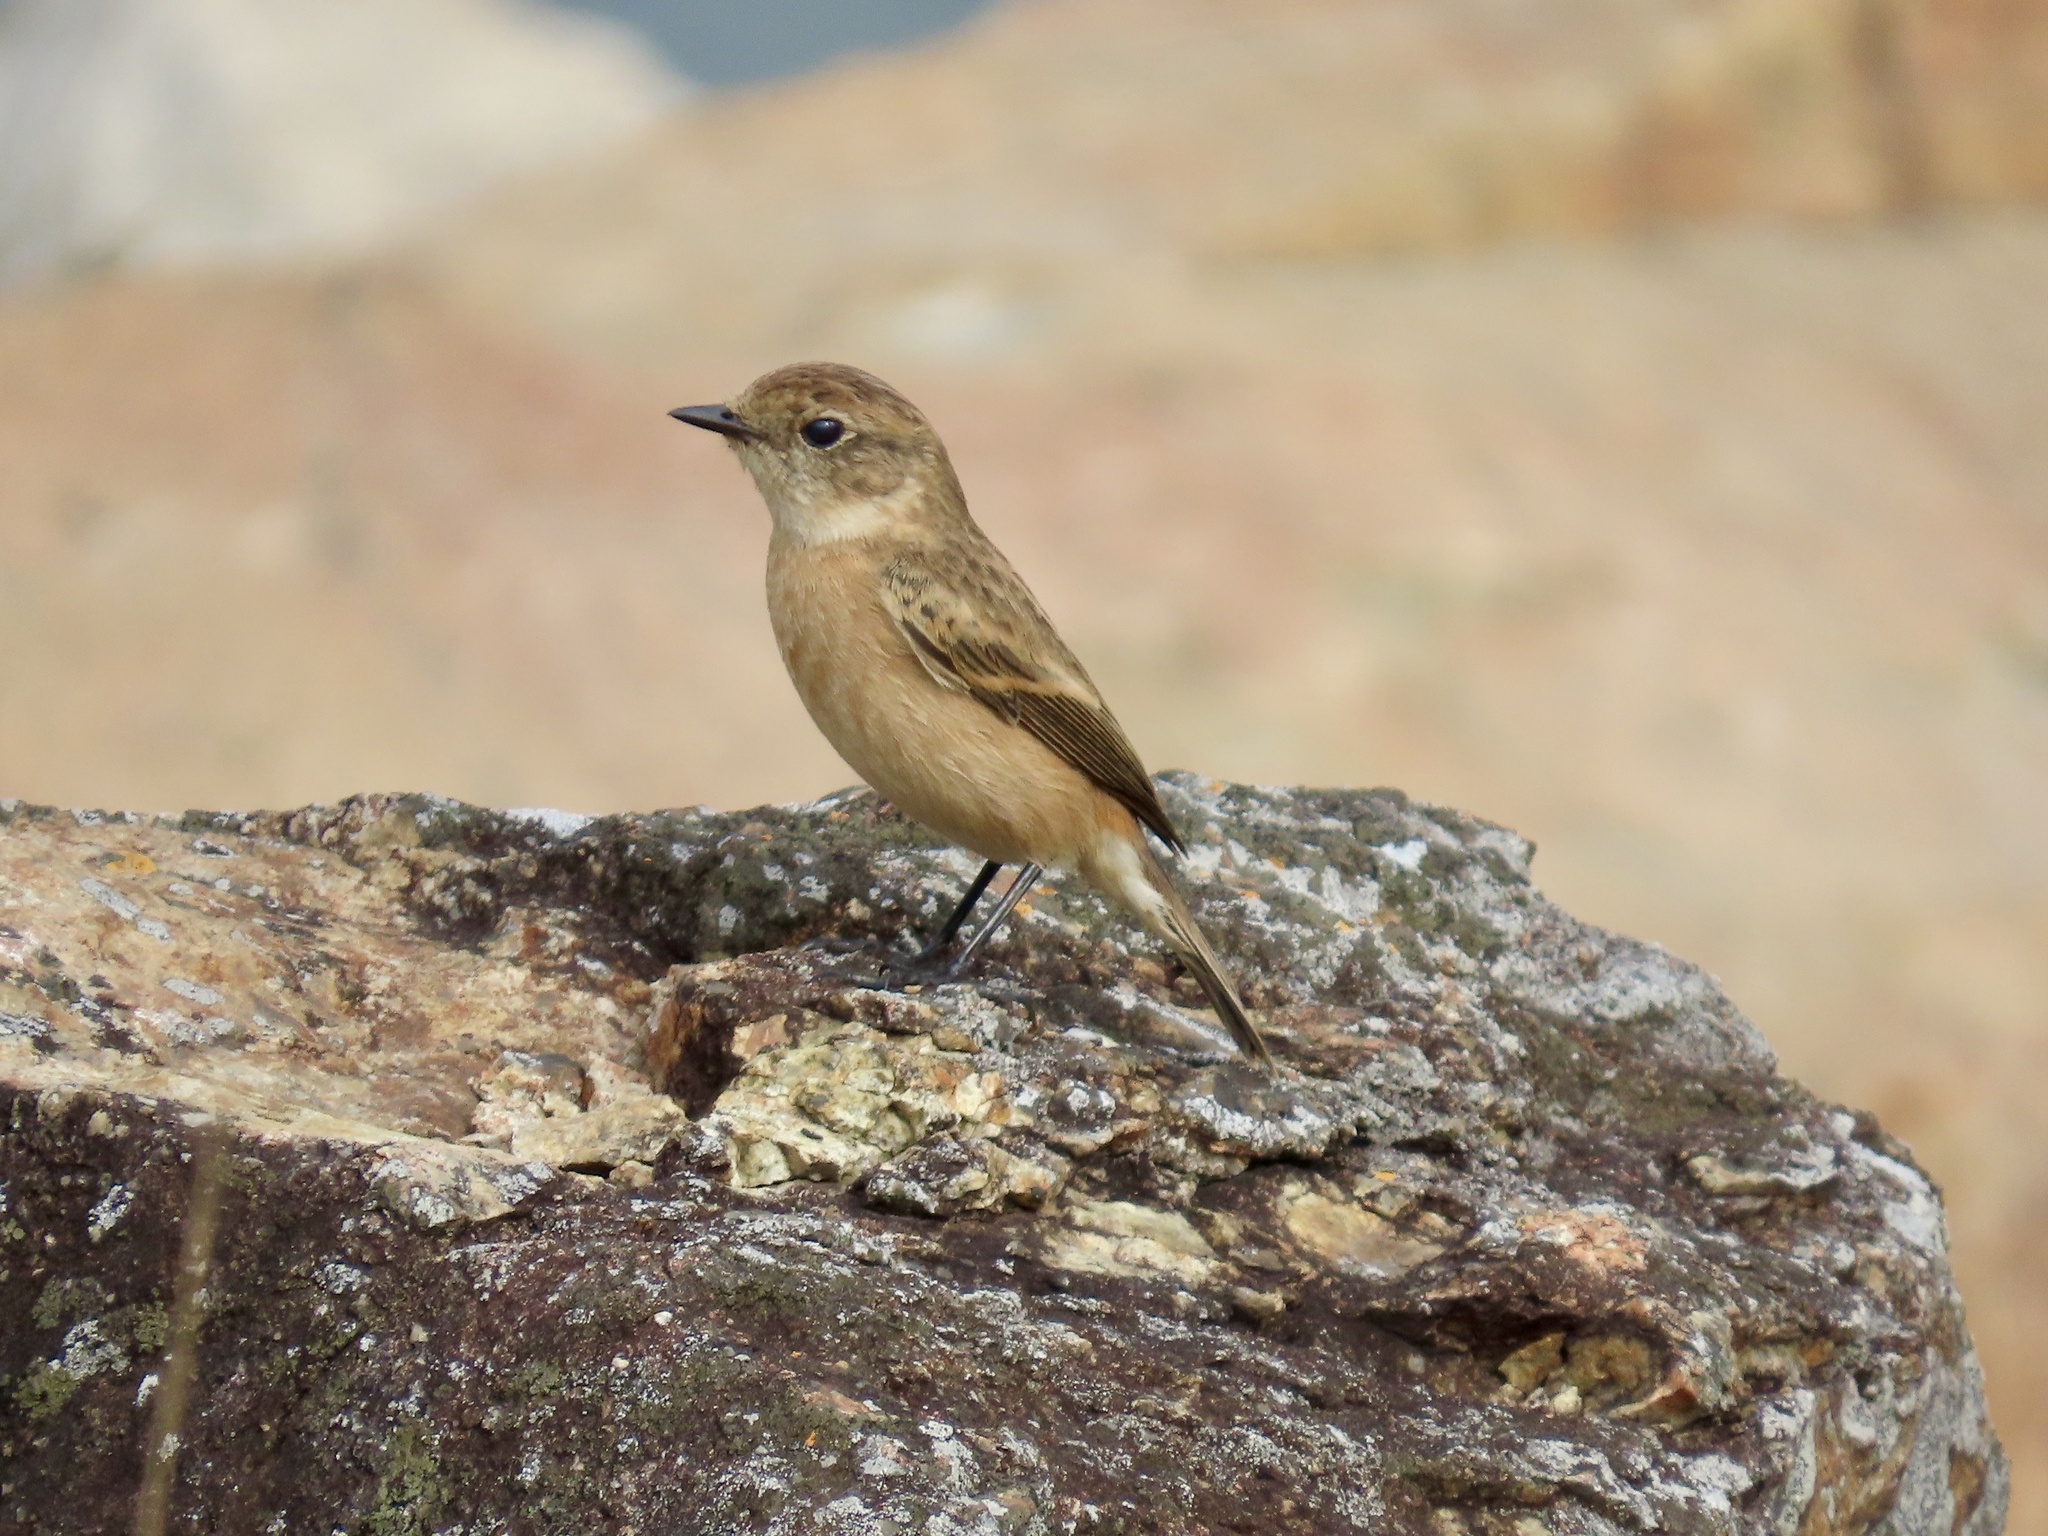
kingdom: Animalia
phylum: Chordata
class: Aves
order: Passeriformes
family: Muscicapidae
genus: Saxicola
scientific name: Saxicola stejnegeri
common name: Stejneger's stonechat
